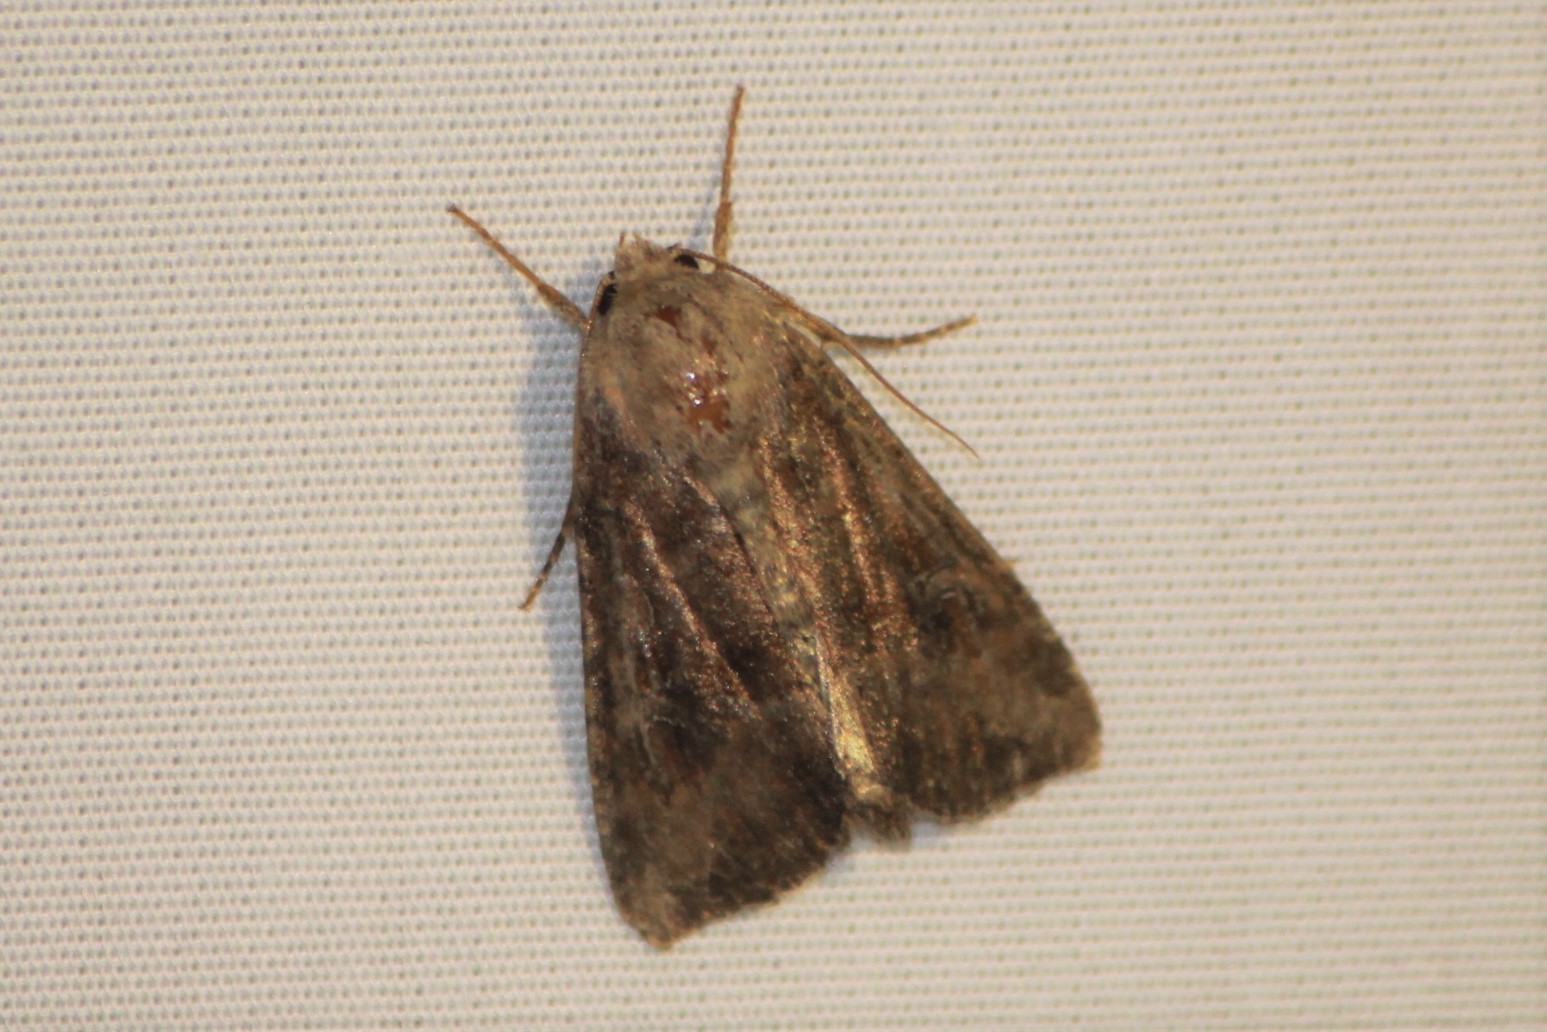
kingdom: Animalia
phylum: Arthropoda
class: Insecta
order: Lepidoptera
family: Noctuidae
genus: Loscopia
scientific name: Loscopia velata
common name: Veiled ear moth
